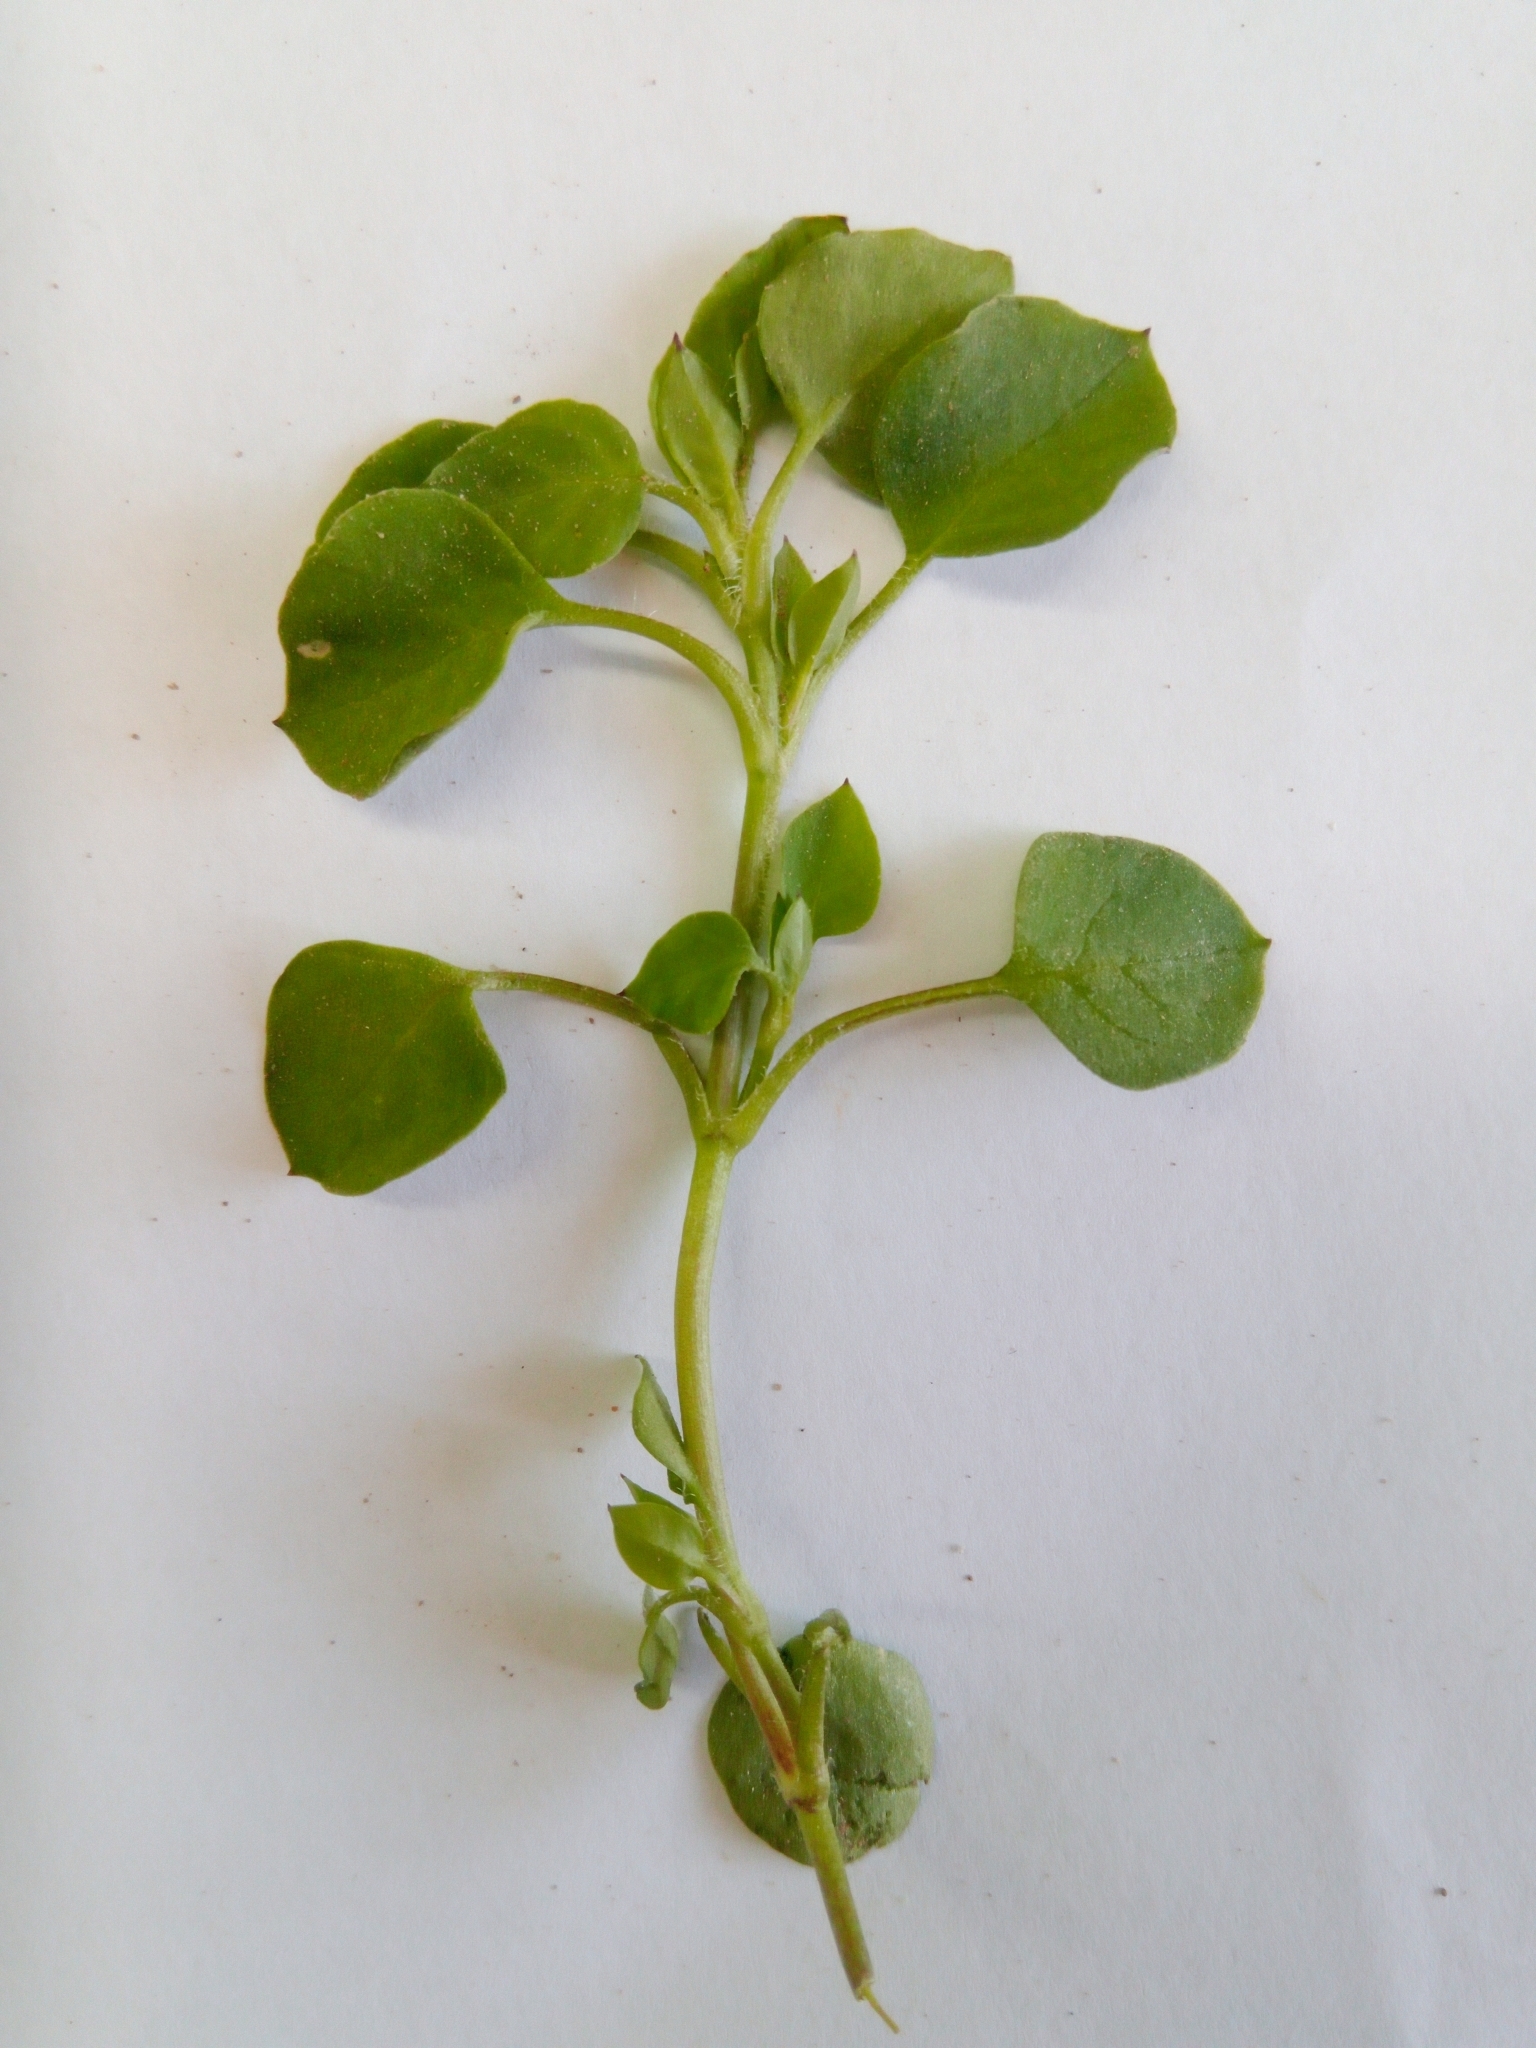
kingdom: Plantae
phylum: Tracheophyta
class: Magnoliopsida
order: Caryophyllales
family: Caryophyllaceae
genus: Stellaria
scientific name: Stellaria media
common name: Common chickweed
